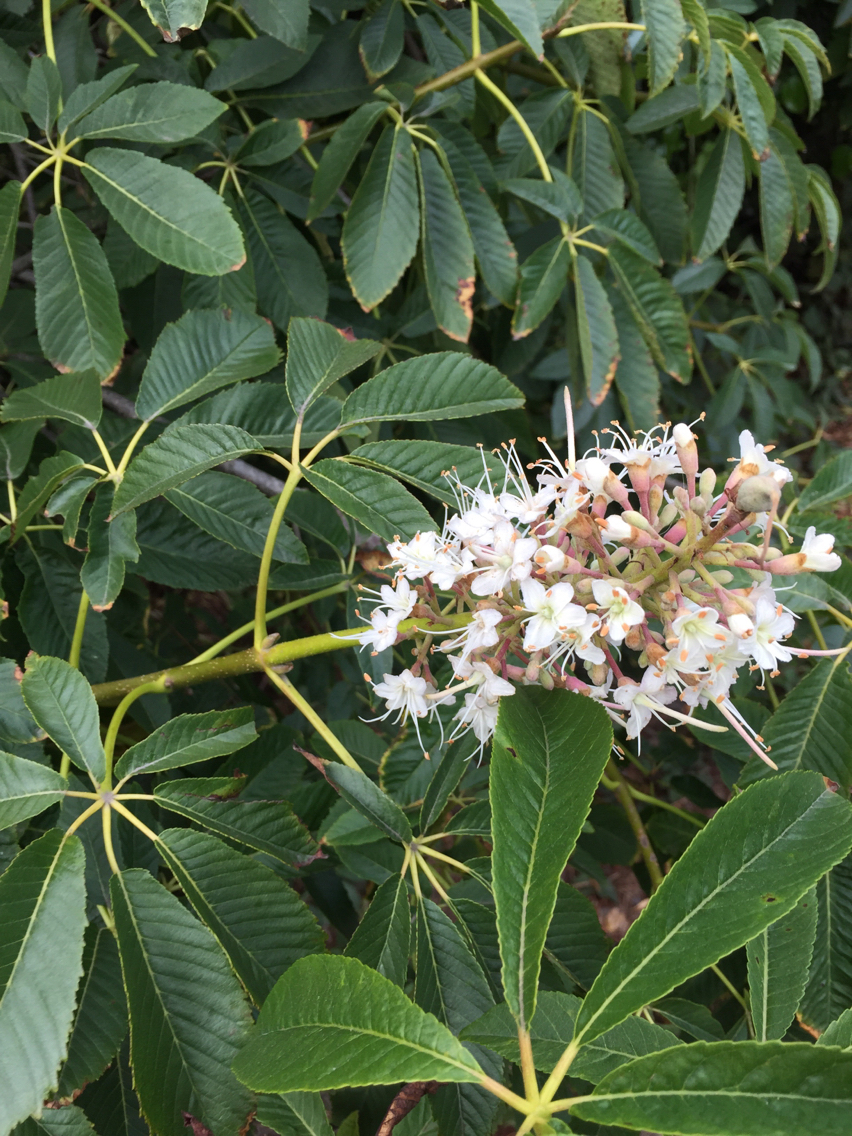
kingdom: Plantae
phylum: Tracheophyta
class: Magnoliopsida
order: Sapindales
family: Sapindaceae
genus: Aesculus
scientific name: Aesculus californica
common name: California buckeye
